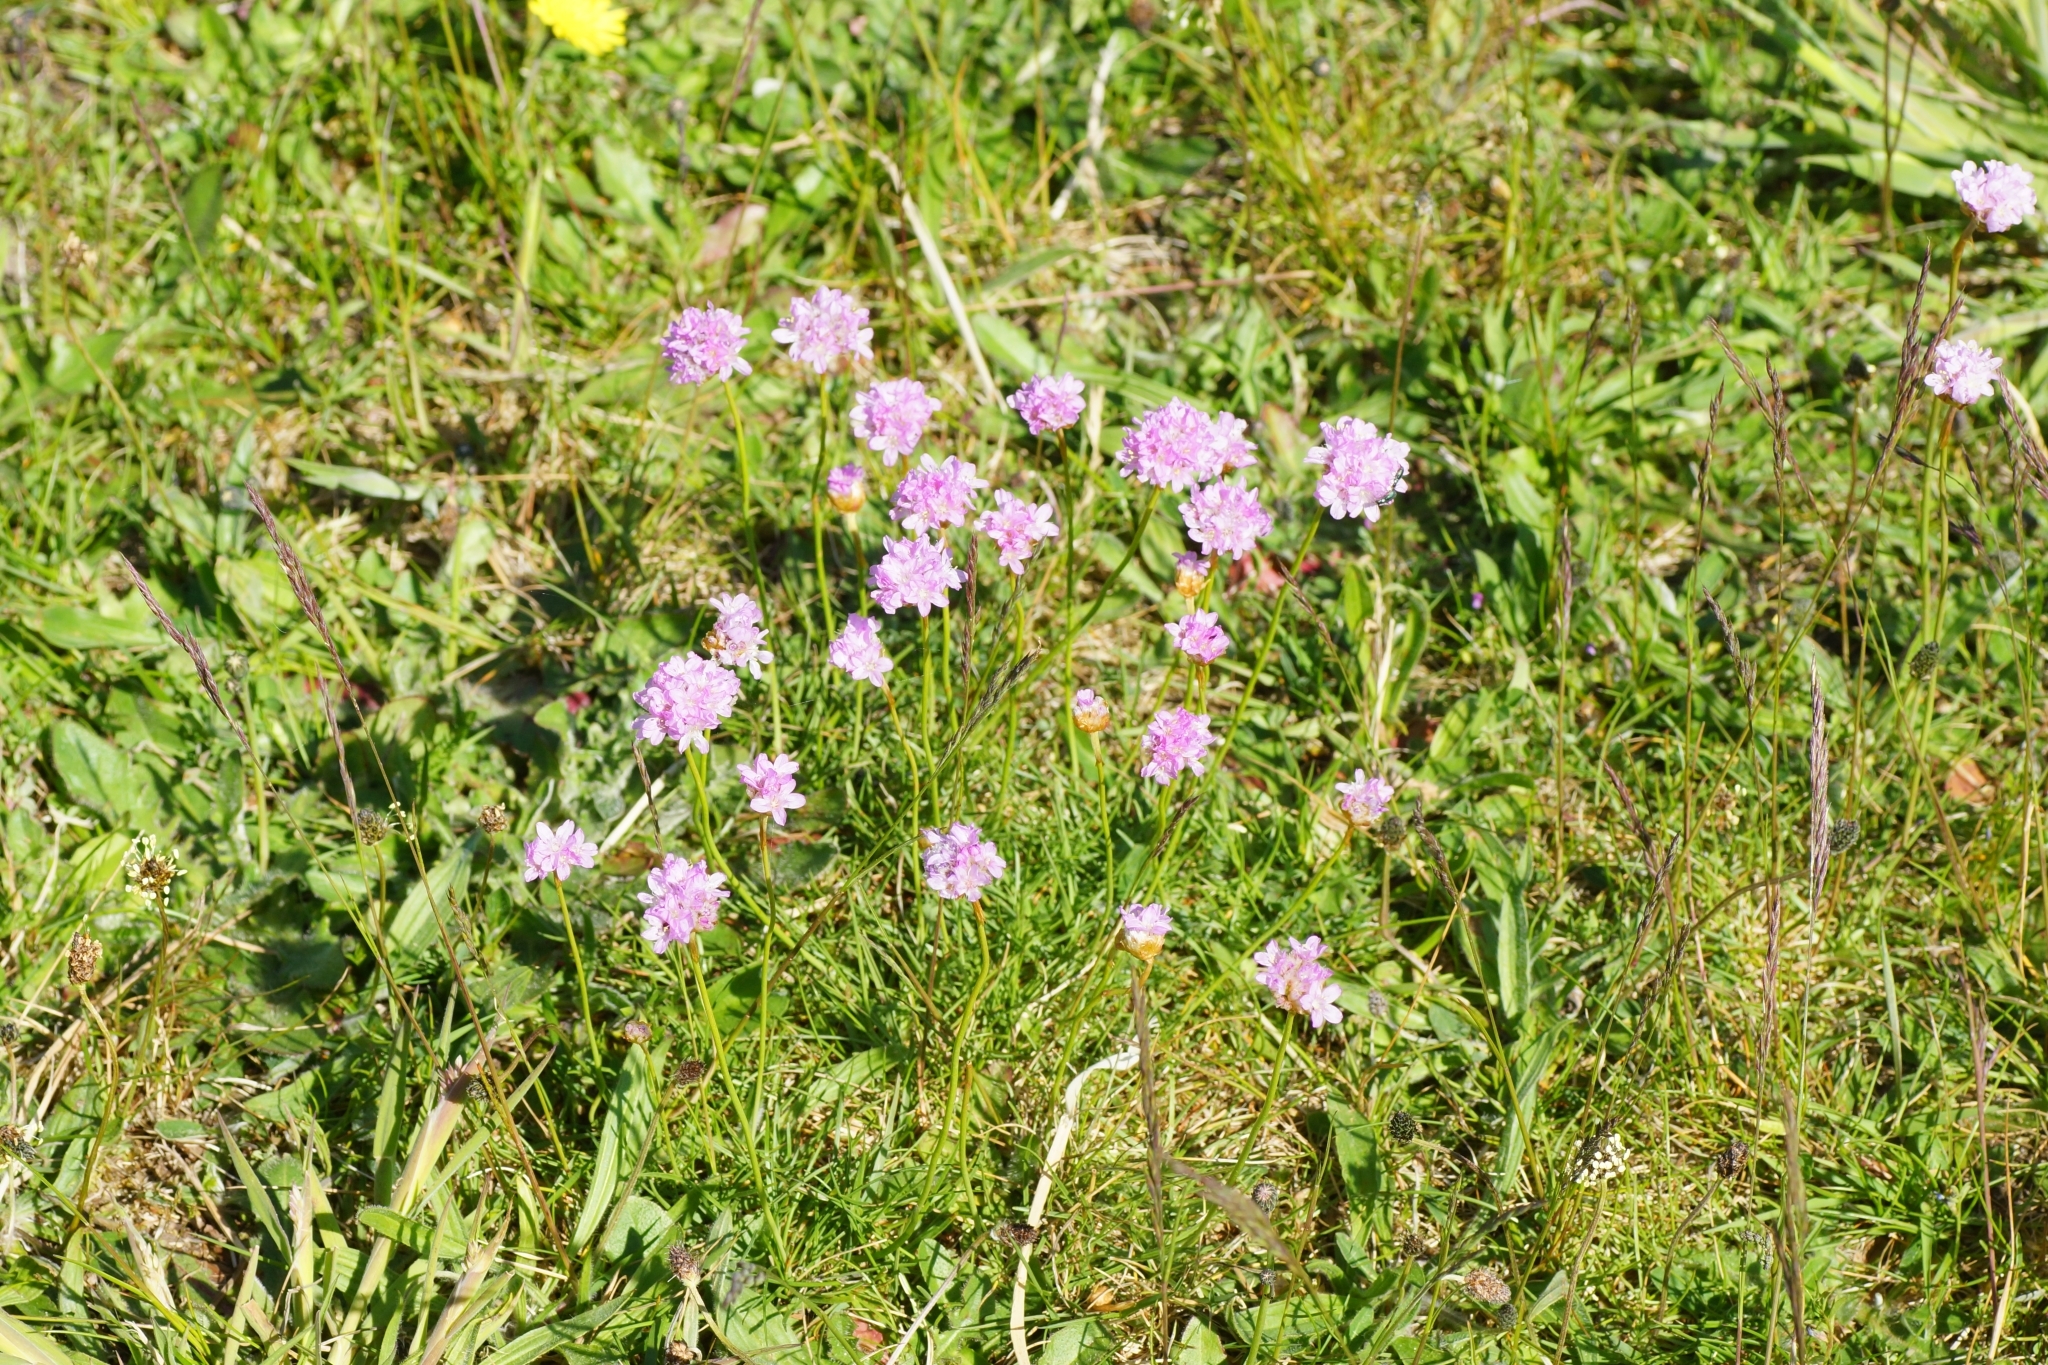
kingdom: Plantae
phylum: Tracheophyta
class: Magnoliopsida
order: Caryophyllales
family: Plumbaginaceae
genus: Armeria
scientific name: Armeria maritima
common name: Thrift
